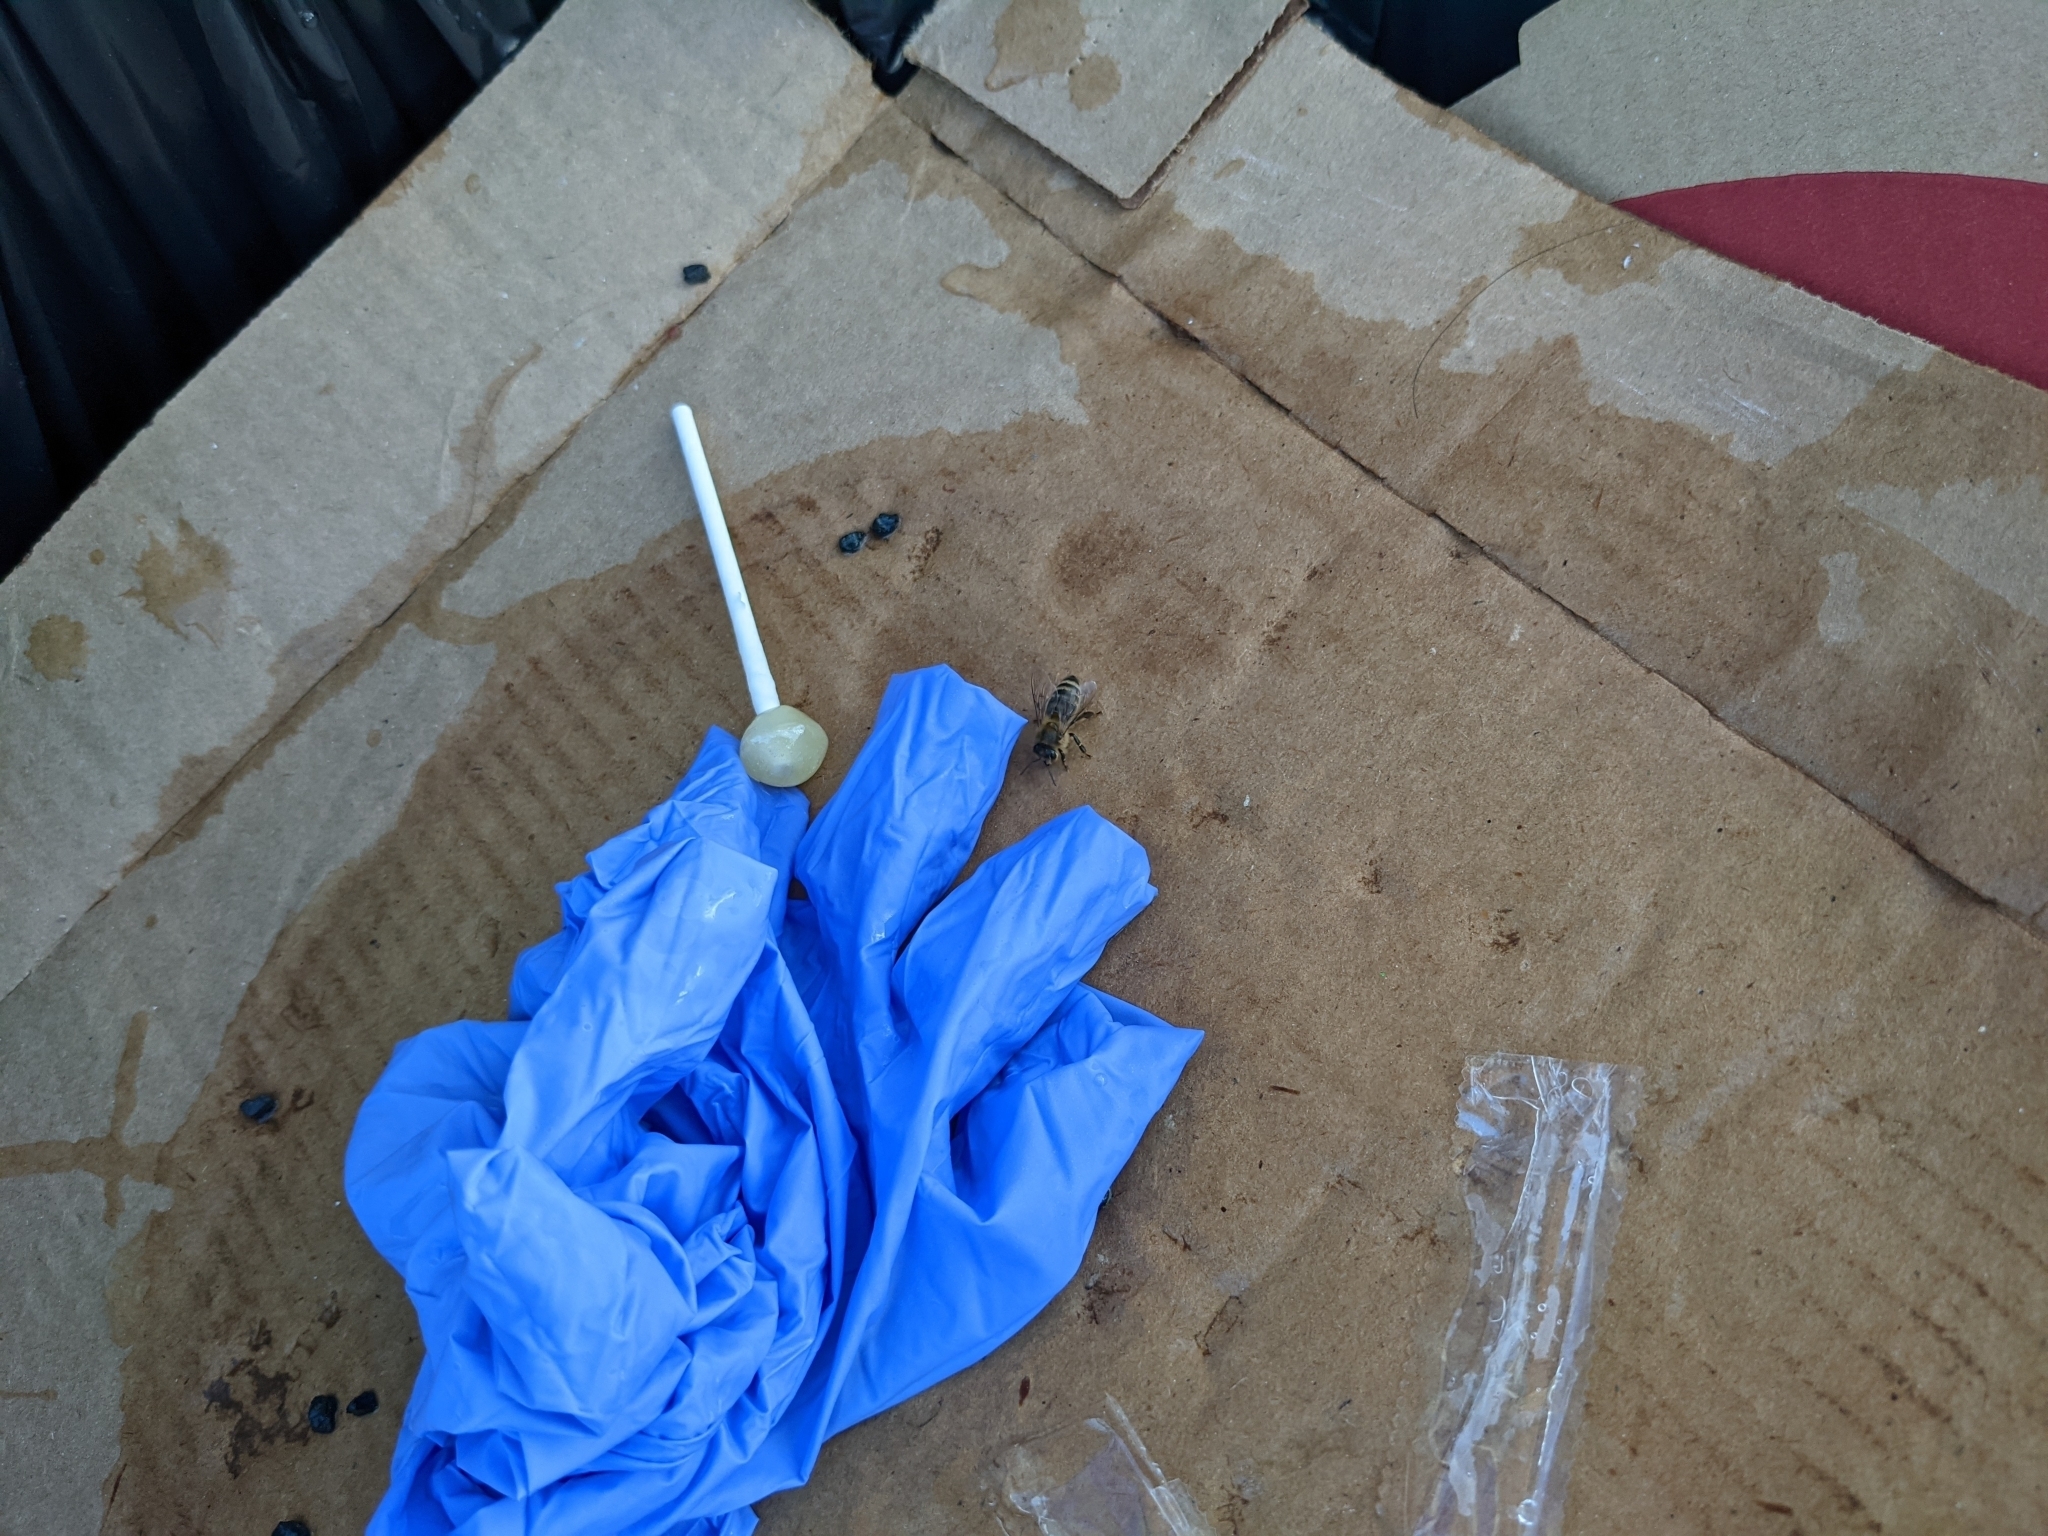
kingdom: Animalia
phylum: Arthropoda
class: Insecta
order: Hymenoptera
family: Apidae
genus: Apis
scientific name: Apis mellifera
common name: Honey bee
